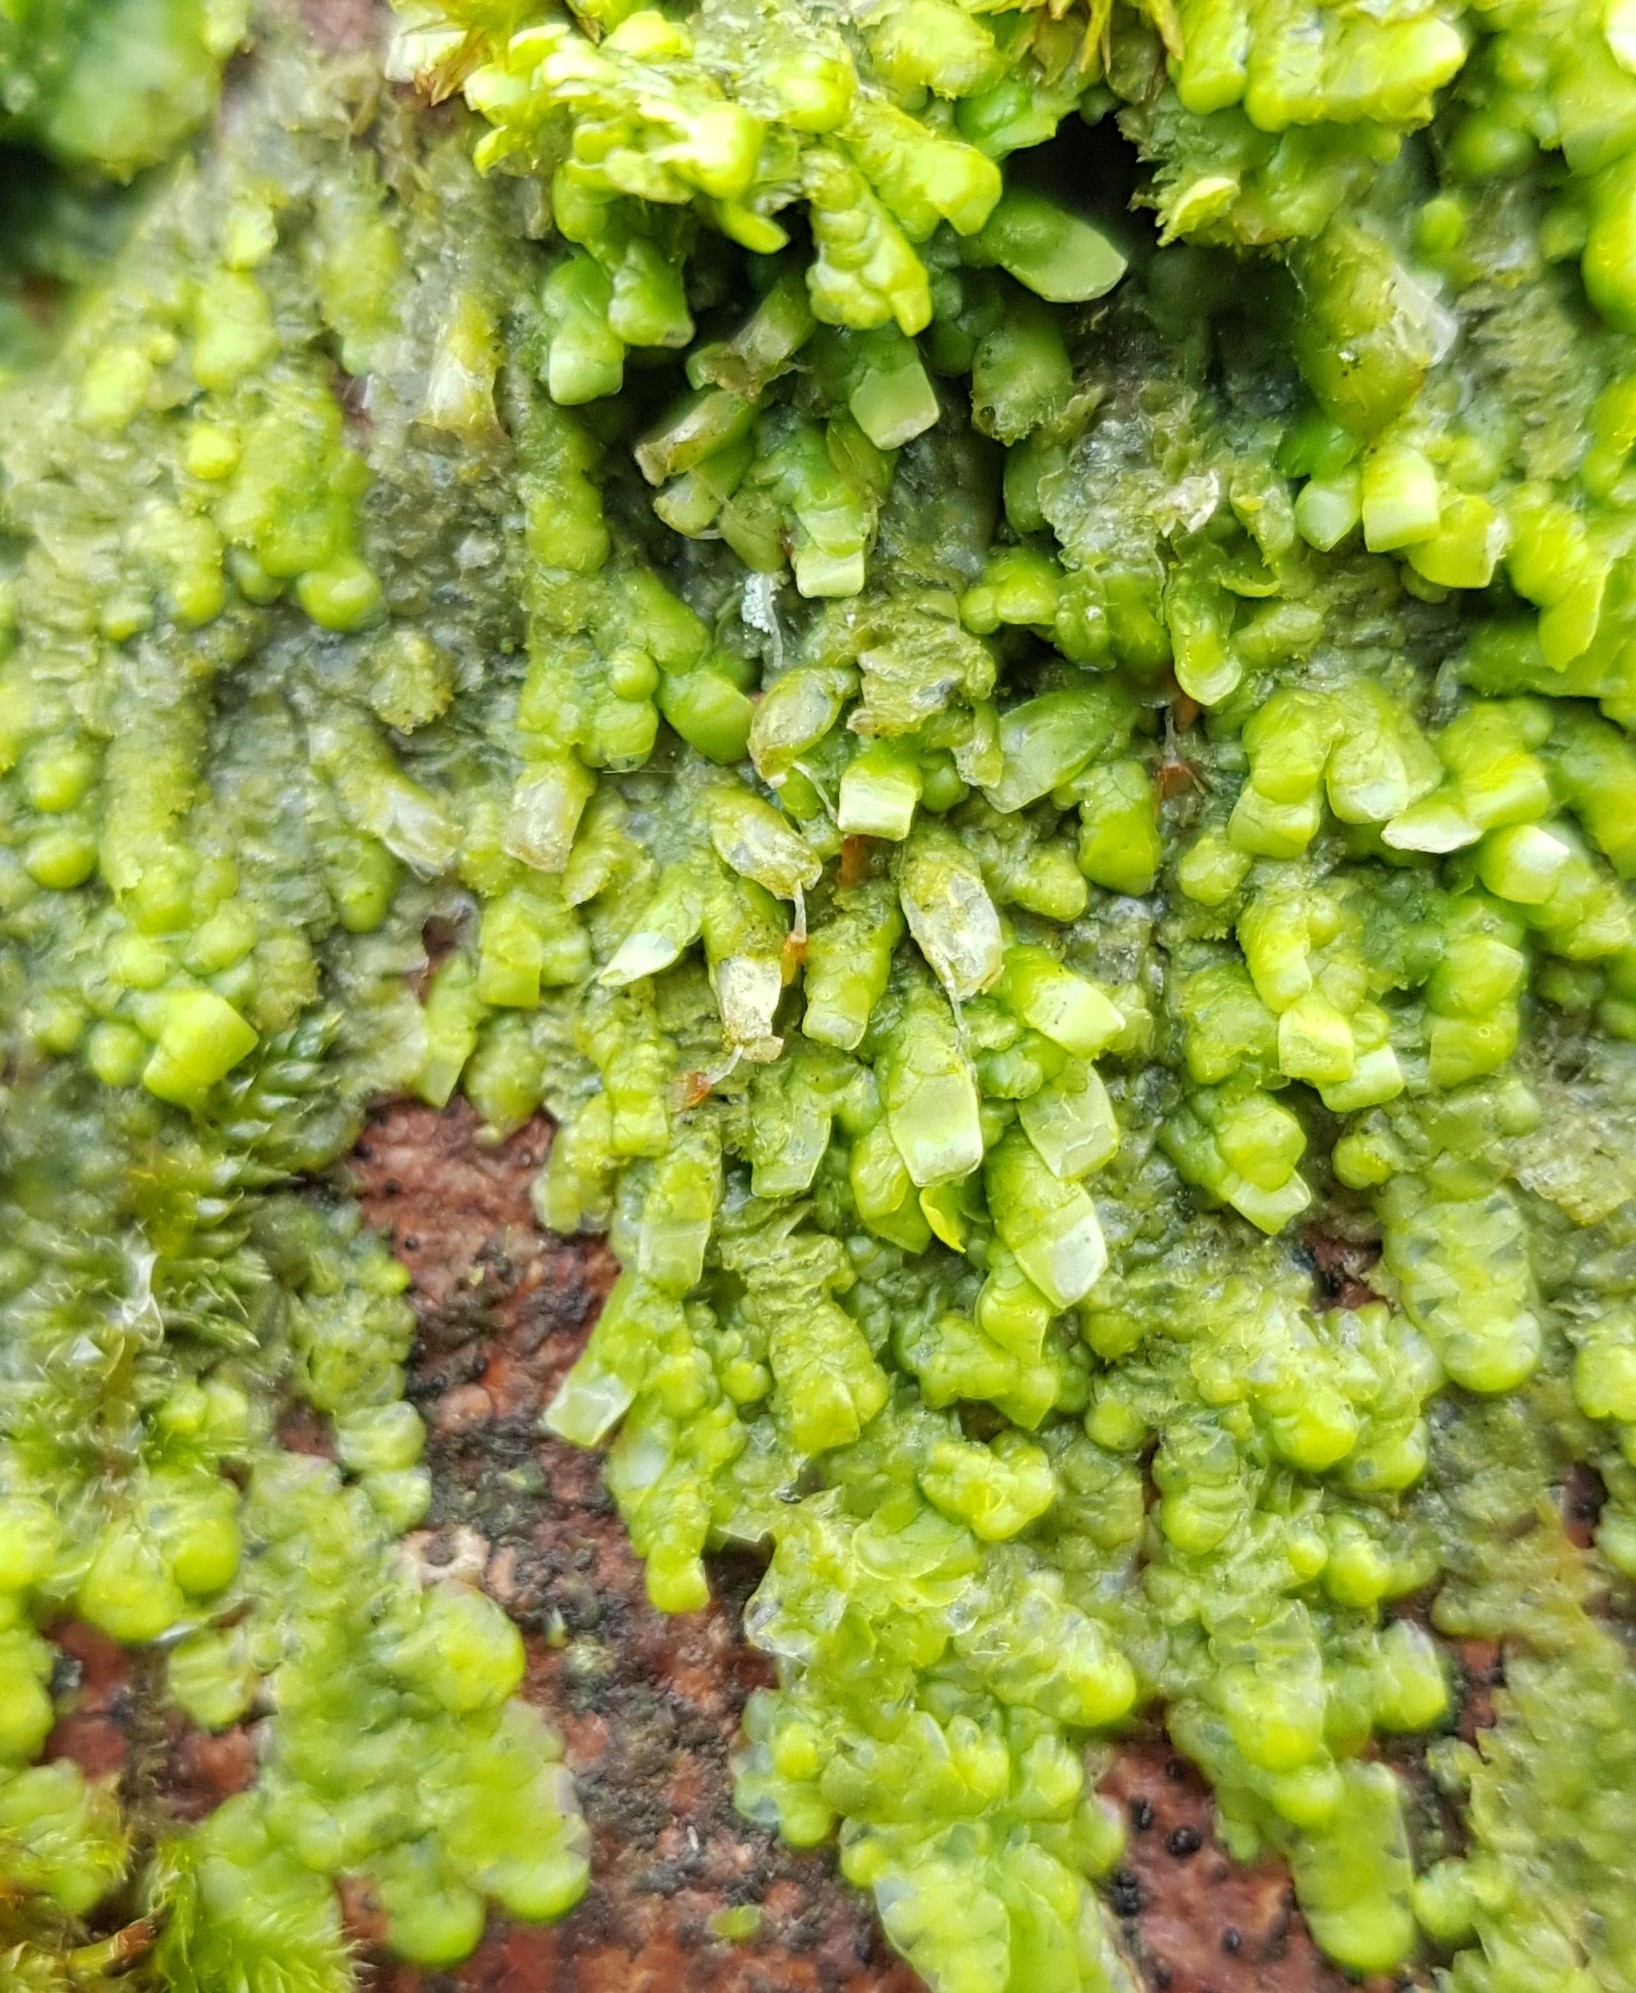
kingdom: Plantae
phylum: Marchantiophyta
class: Jungermanniopsida
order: Porellales
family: Radulaceae
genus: Radula
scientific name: Radula complanata
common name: Flat-leaved scalewort
